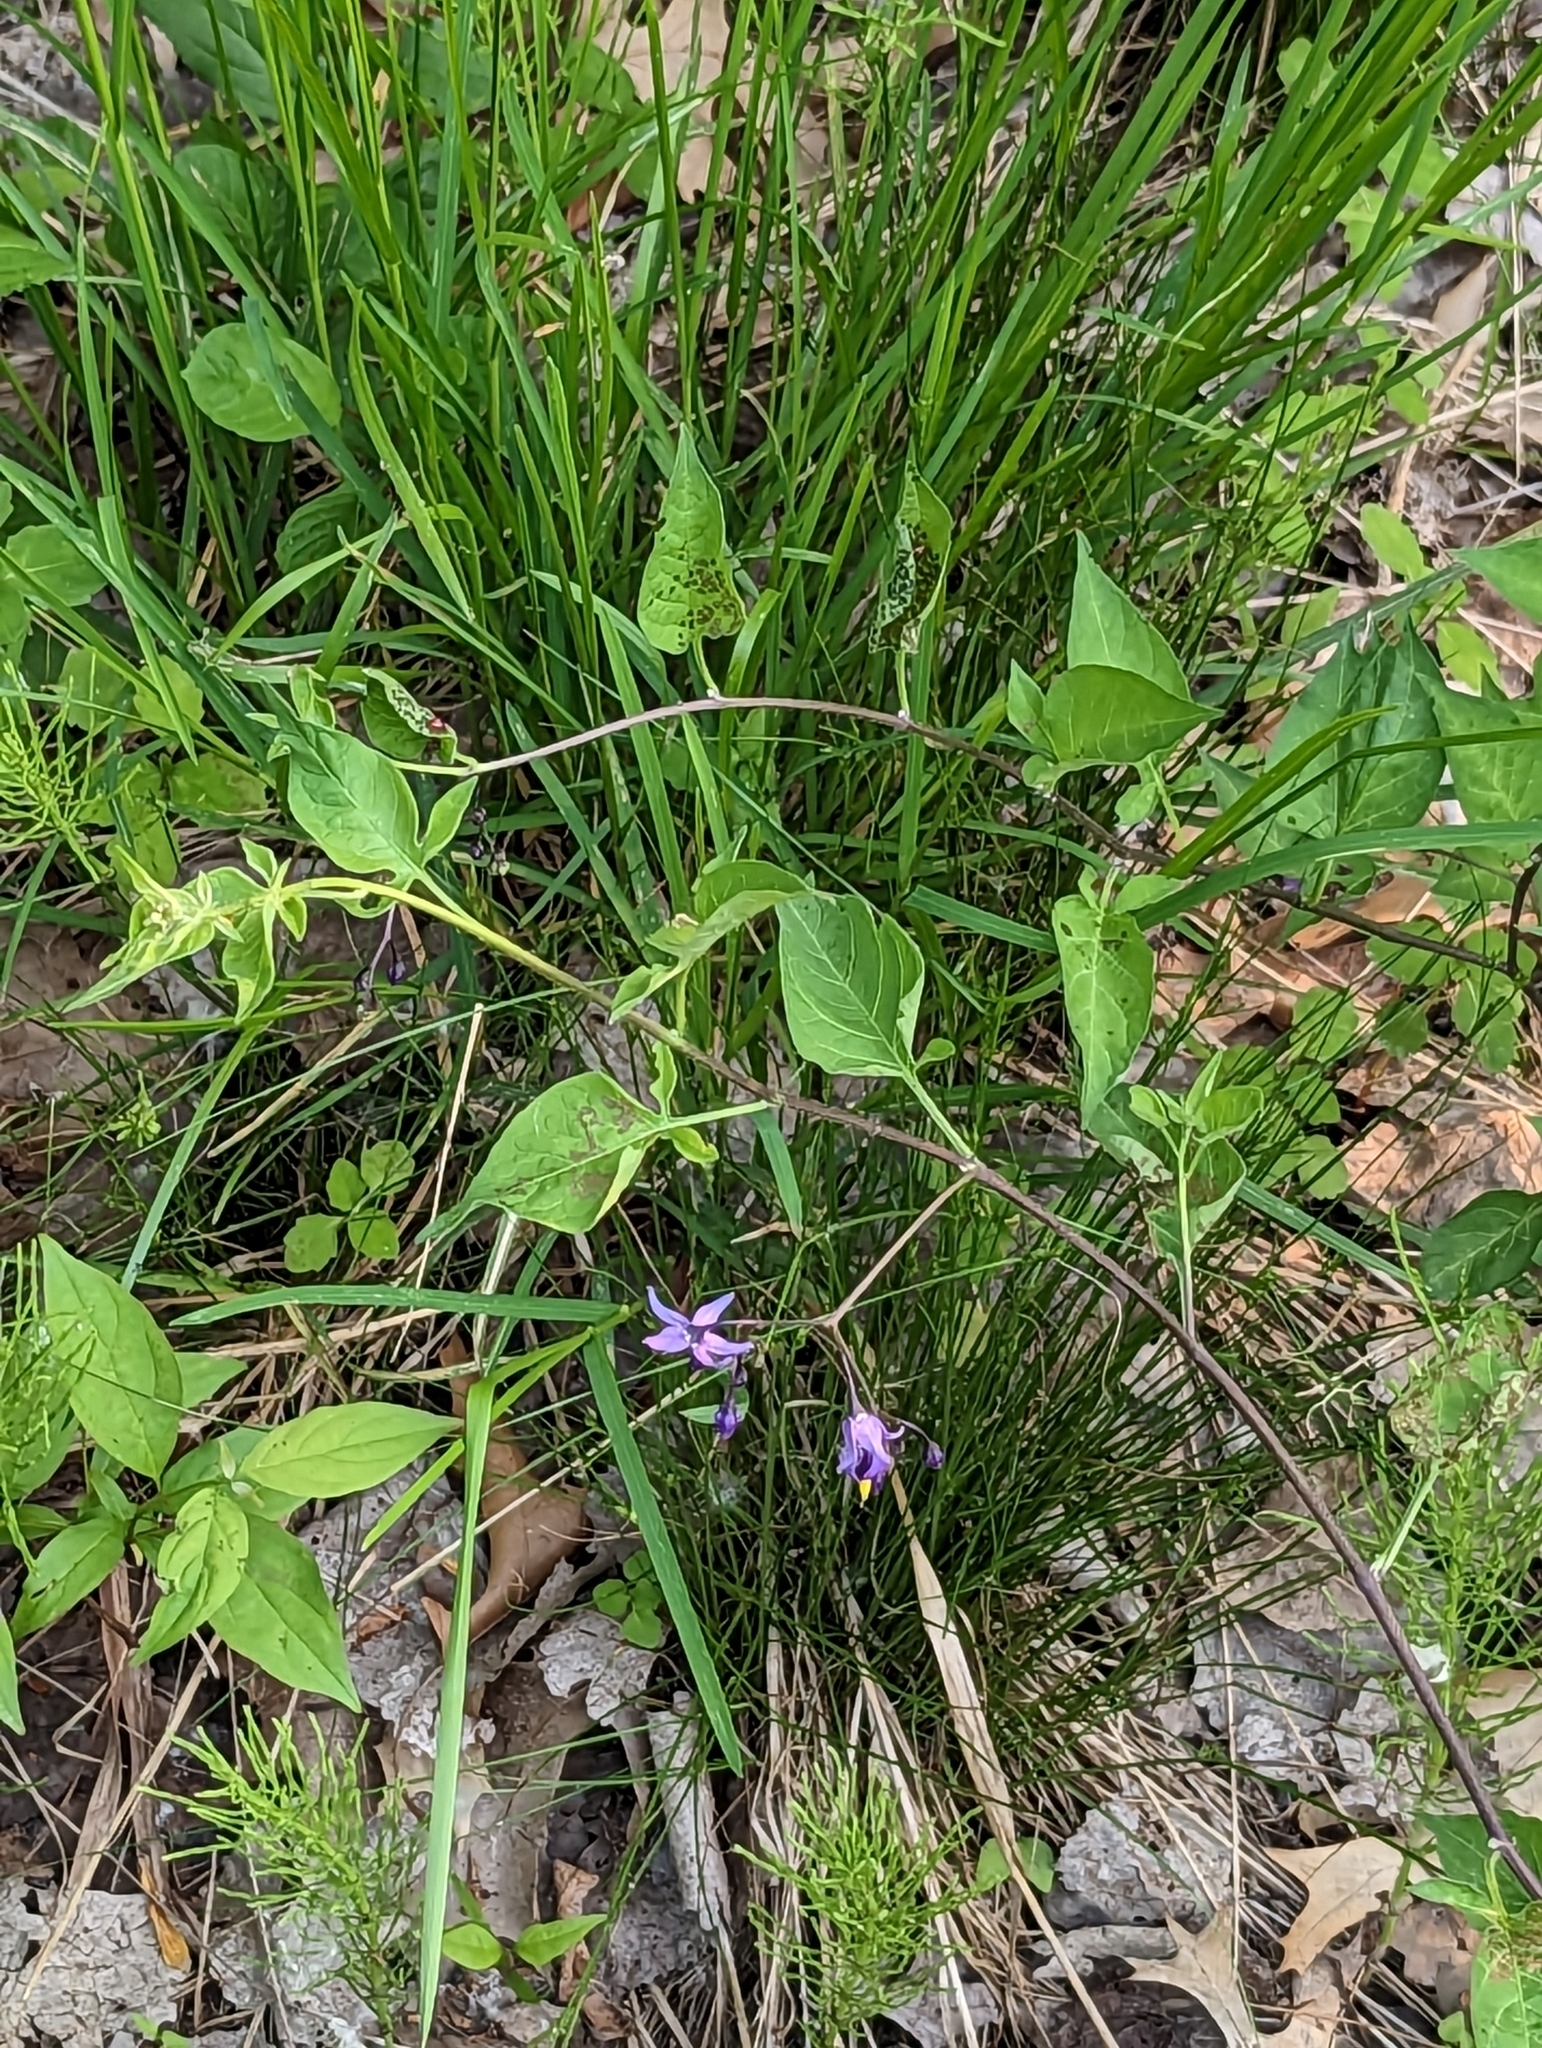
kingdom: Plantae
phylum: Tracheophyta
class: Magnoliopsida
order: Solanales
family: Solanaceae
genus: Solanum
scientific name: Solanum dulcamara
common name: Climbing nightshade
